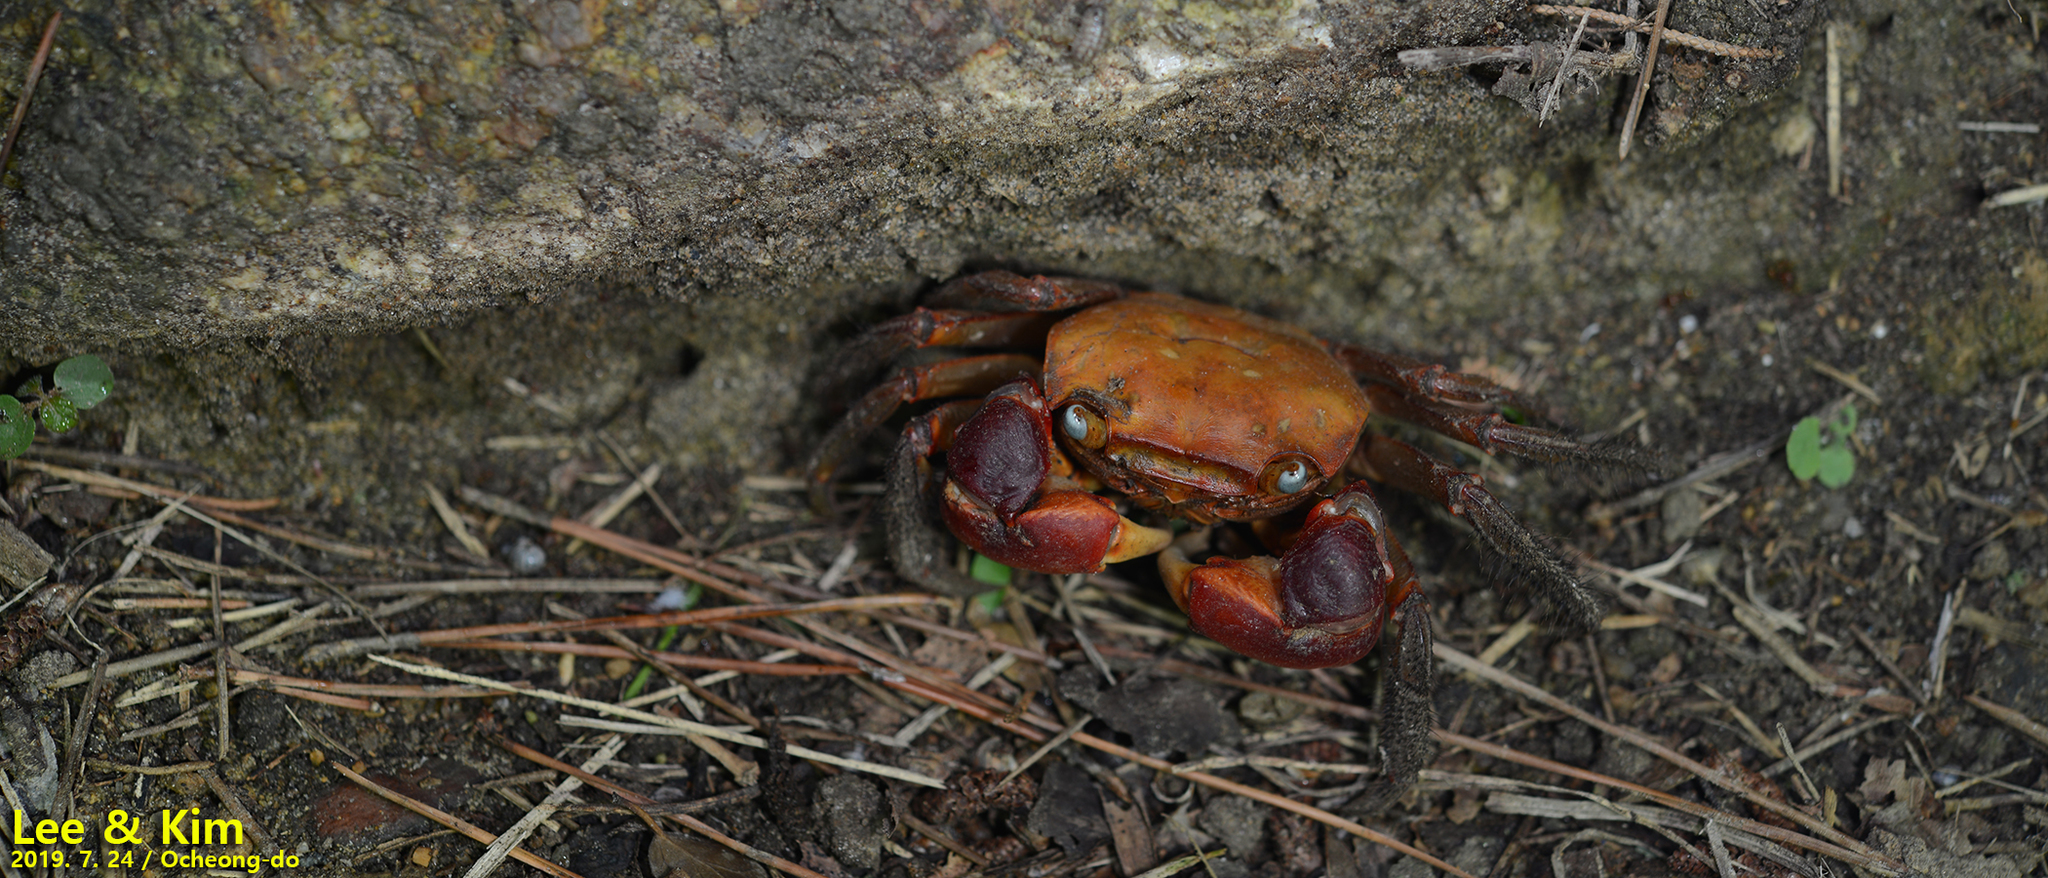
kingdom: Animalia
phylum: Arthropoda
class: Malacostraca
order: Decapoda
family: Sesarmidae
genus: Chiromantes
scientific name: Chiromantes haematocheir
